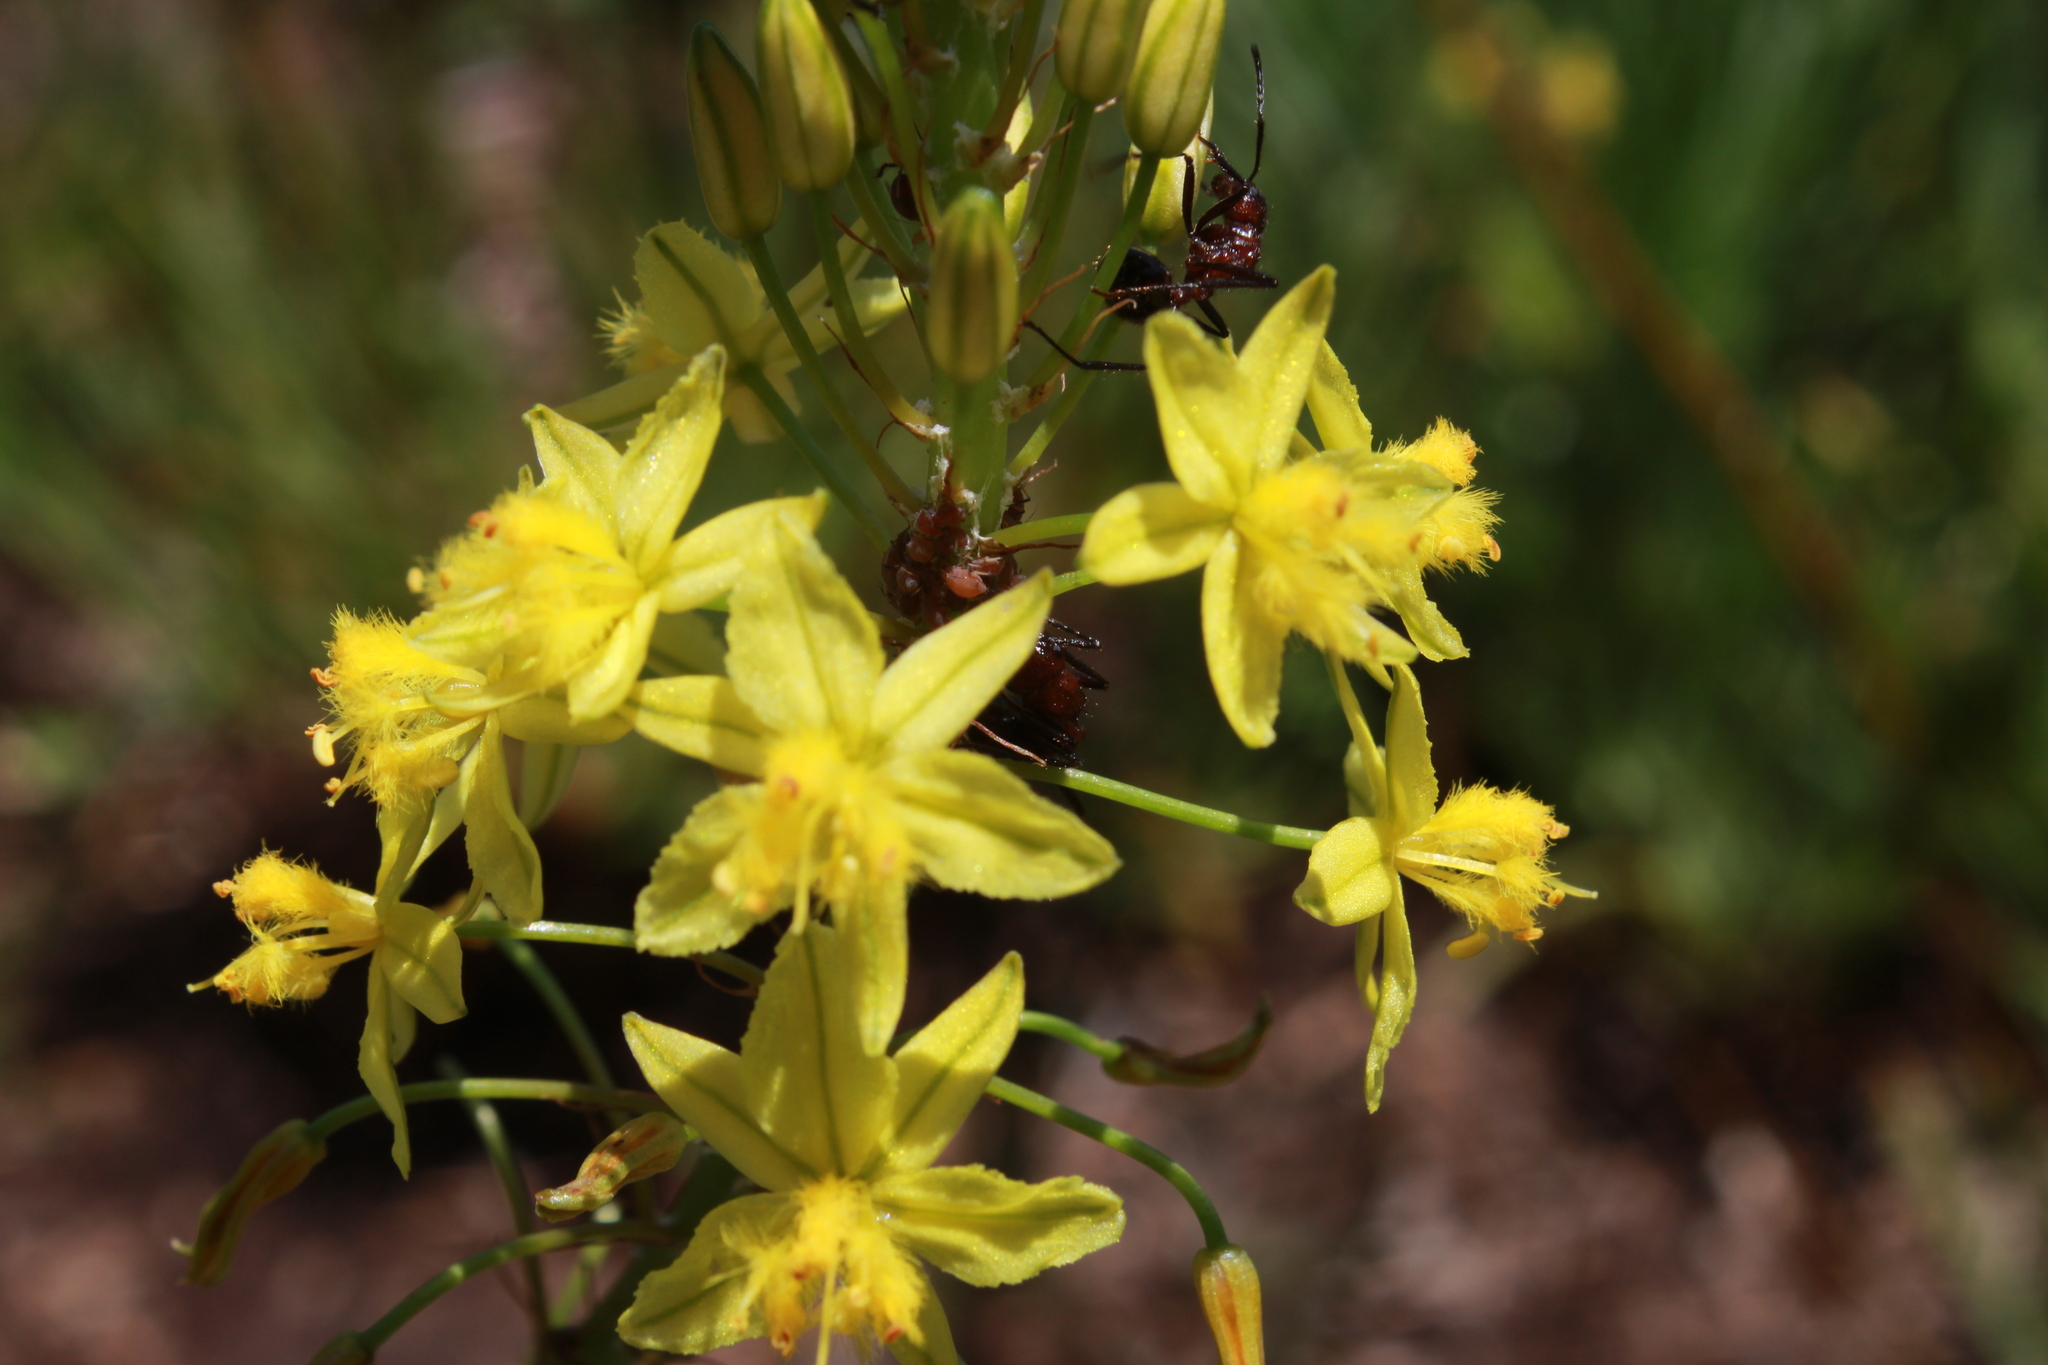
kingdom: Animalia
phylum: Arthropoda
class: Insecta
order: Hymenoptera
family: Formicidae
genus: Myrmicaria
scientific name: Myrmicaria natalensis
